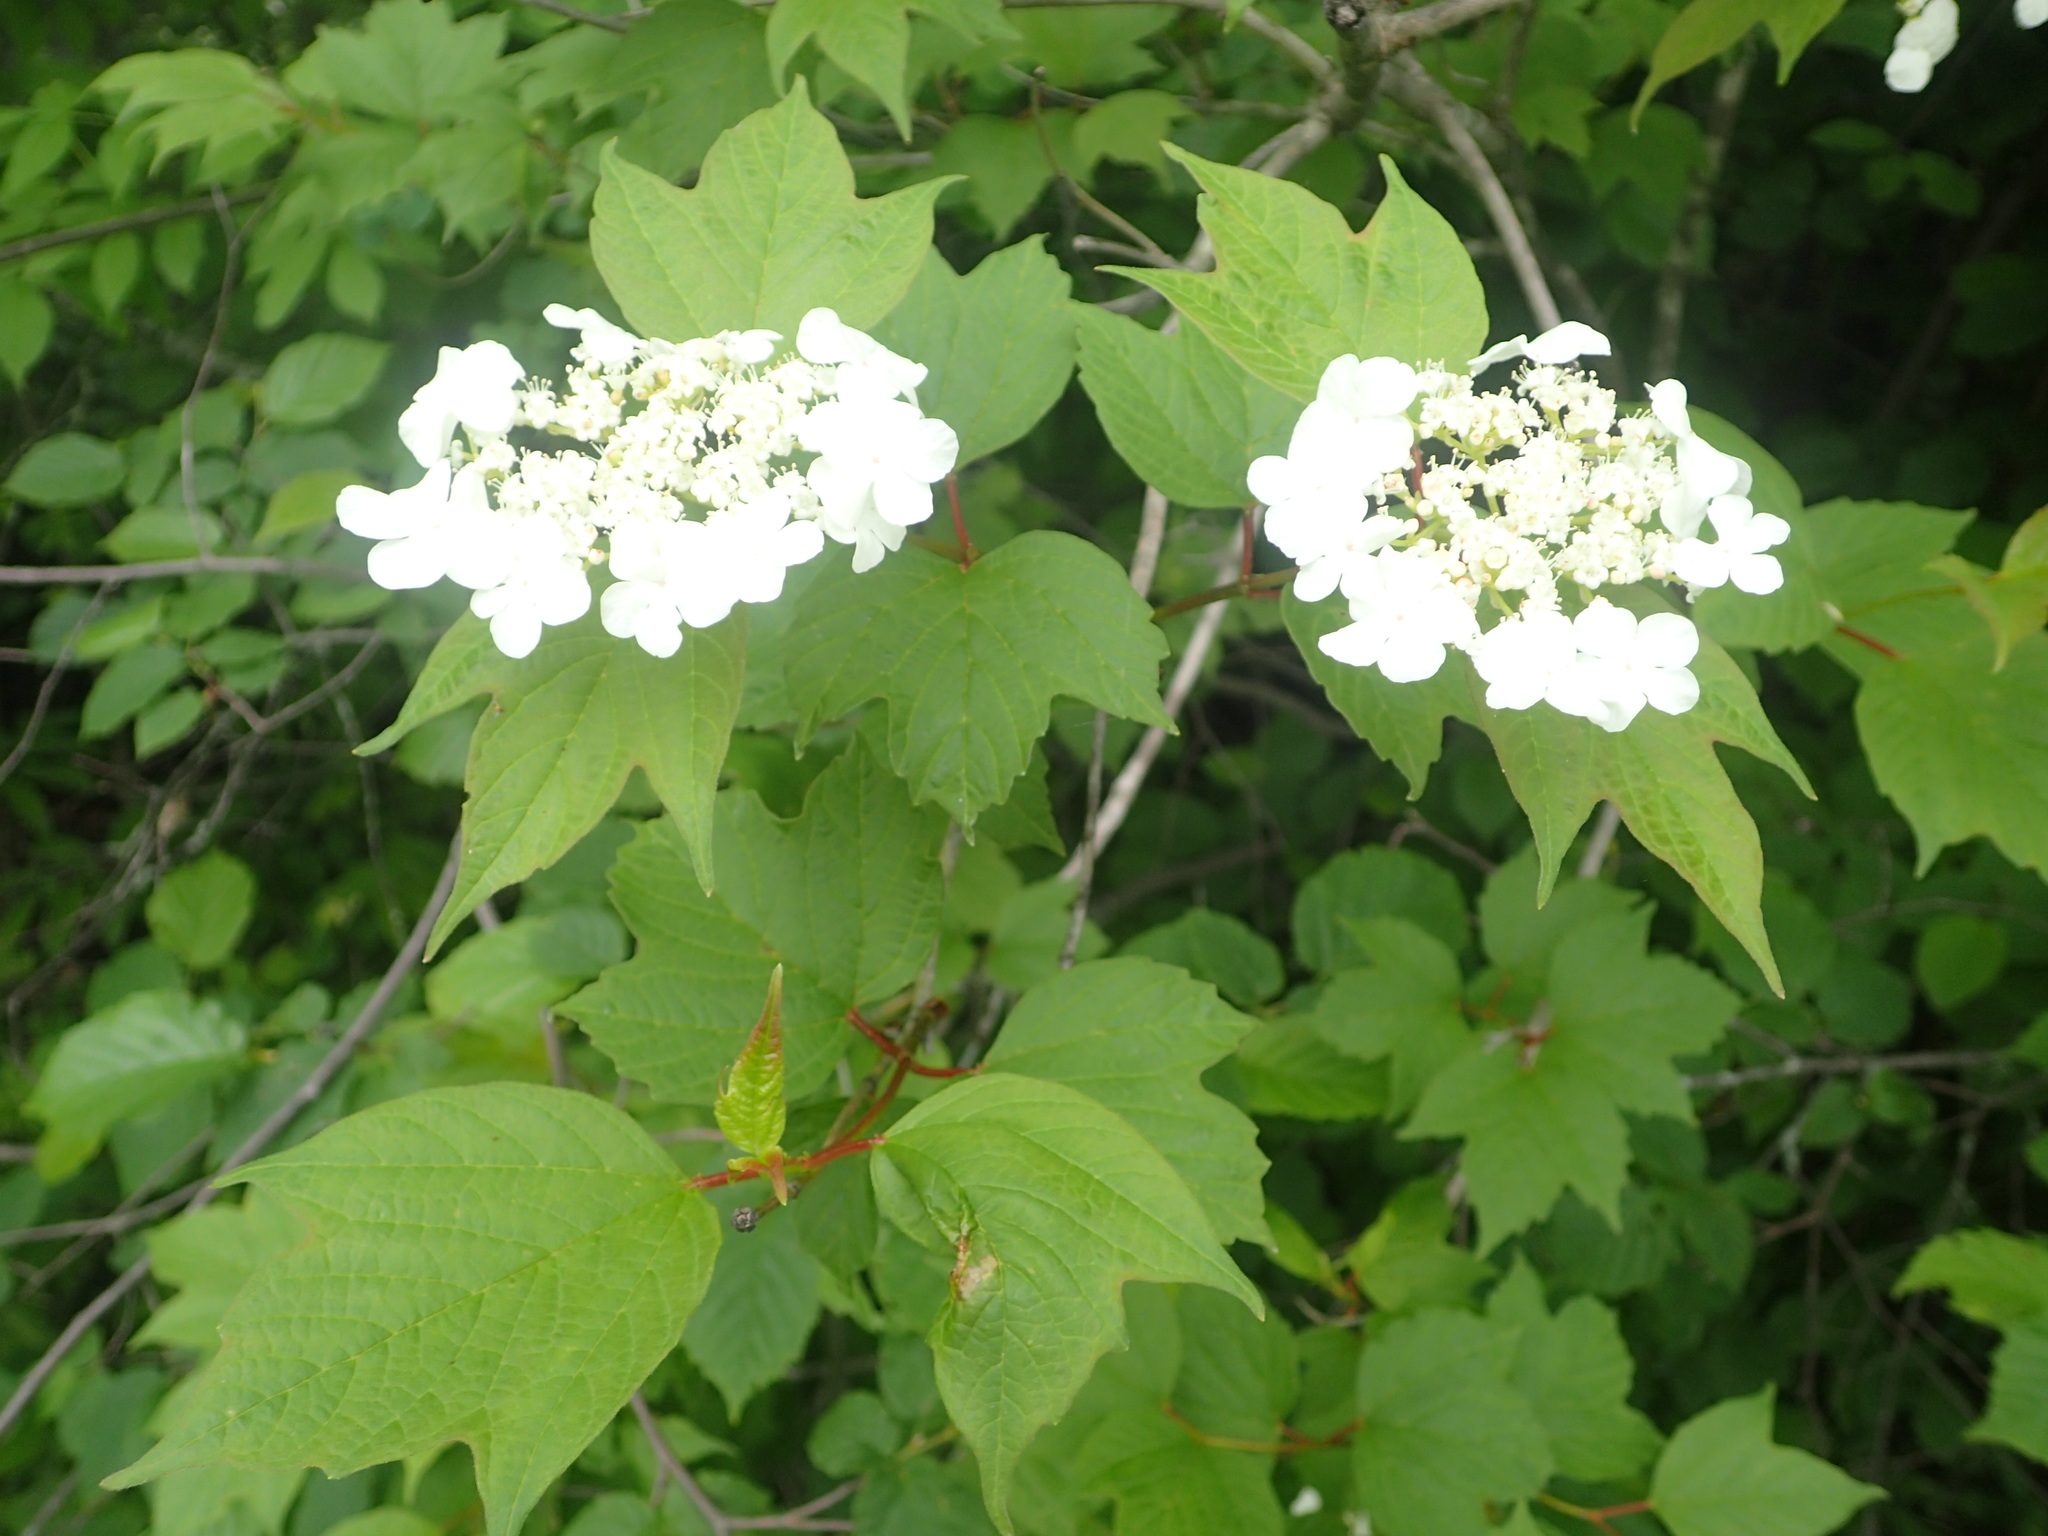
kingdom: Plantae
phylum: Tracheophyta
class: Magnoliopsida
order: Dipsacales
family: Viburnaceae
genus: Viburnum
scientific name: Viburnum opulus
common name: Guelder-rose
